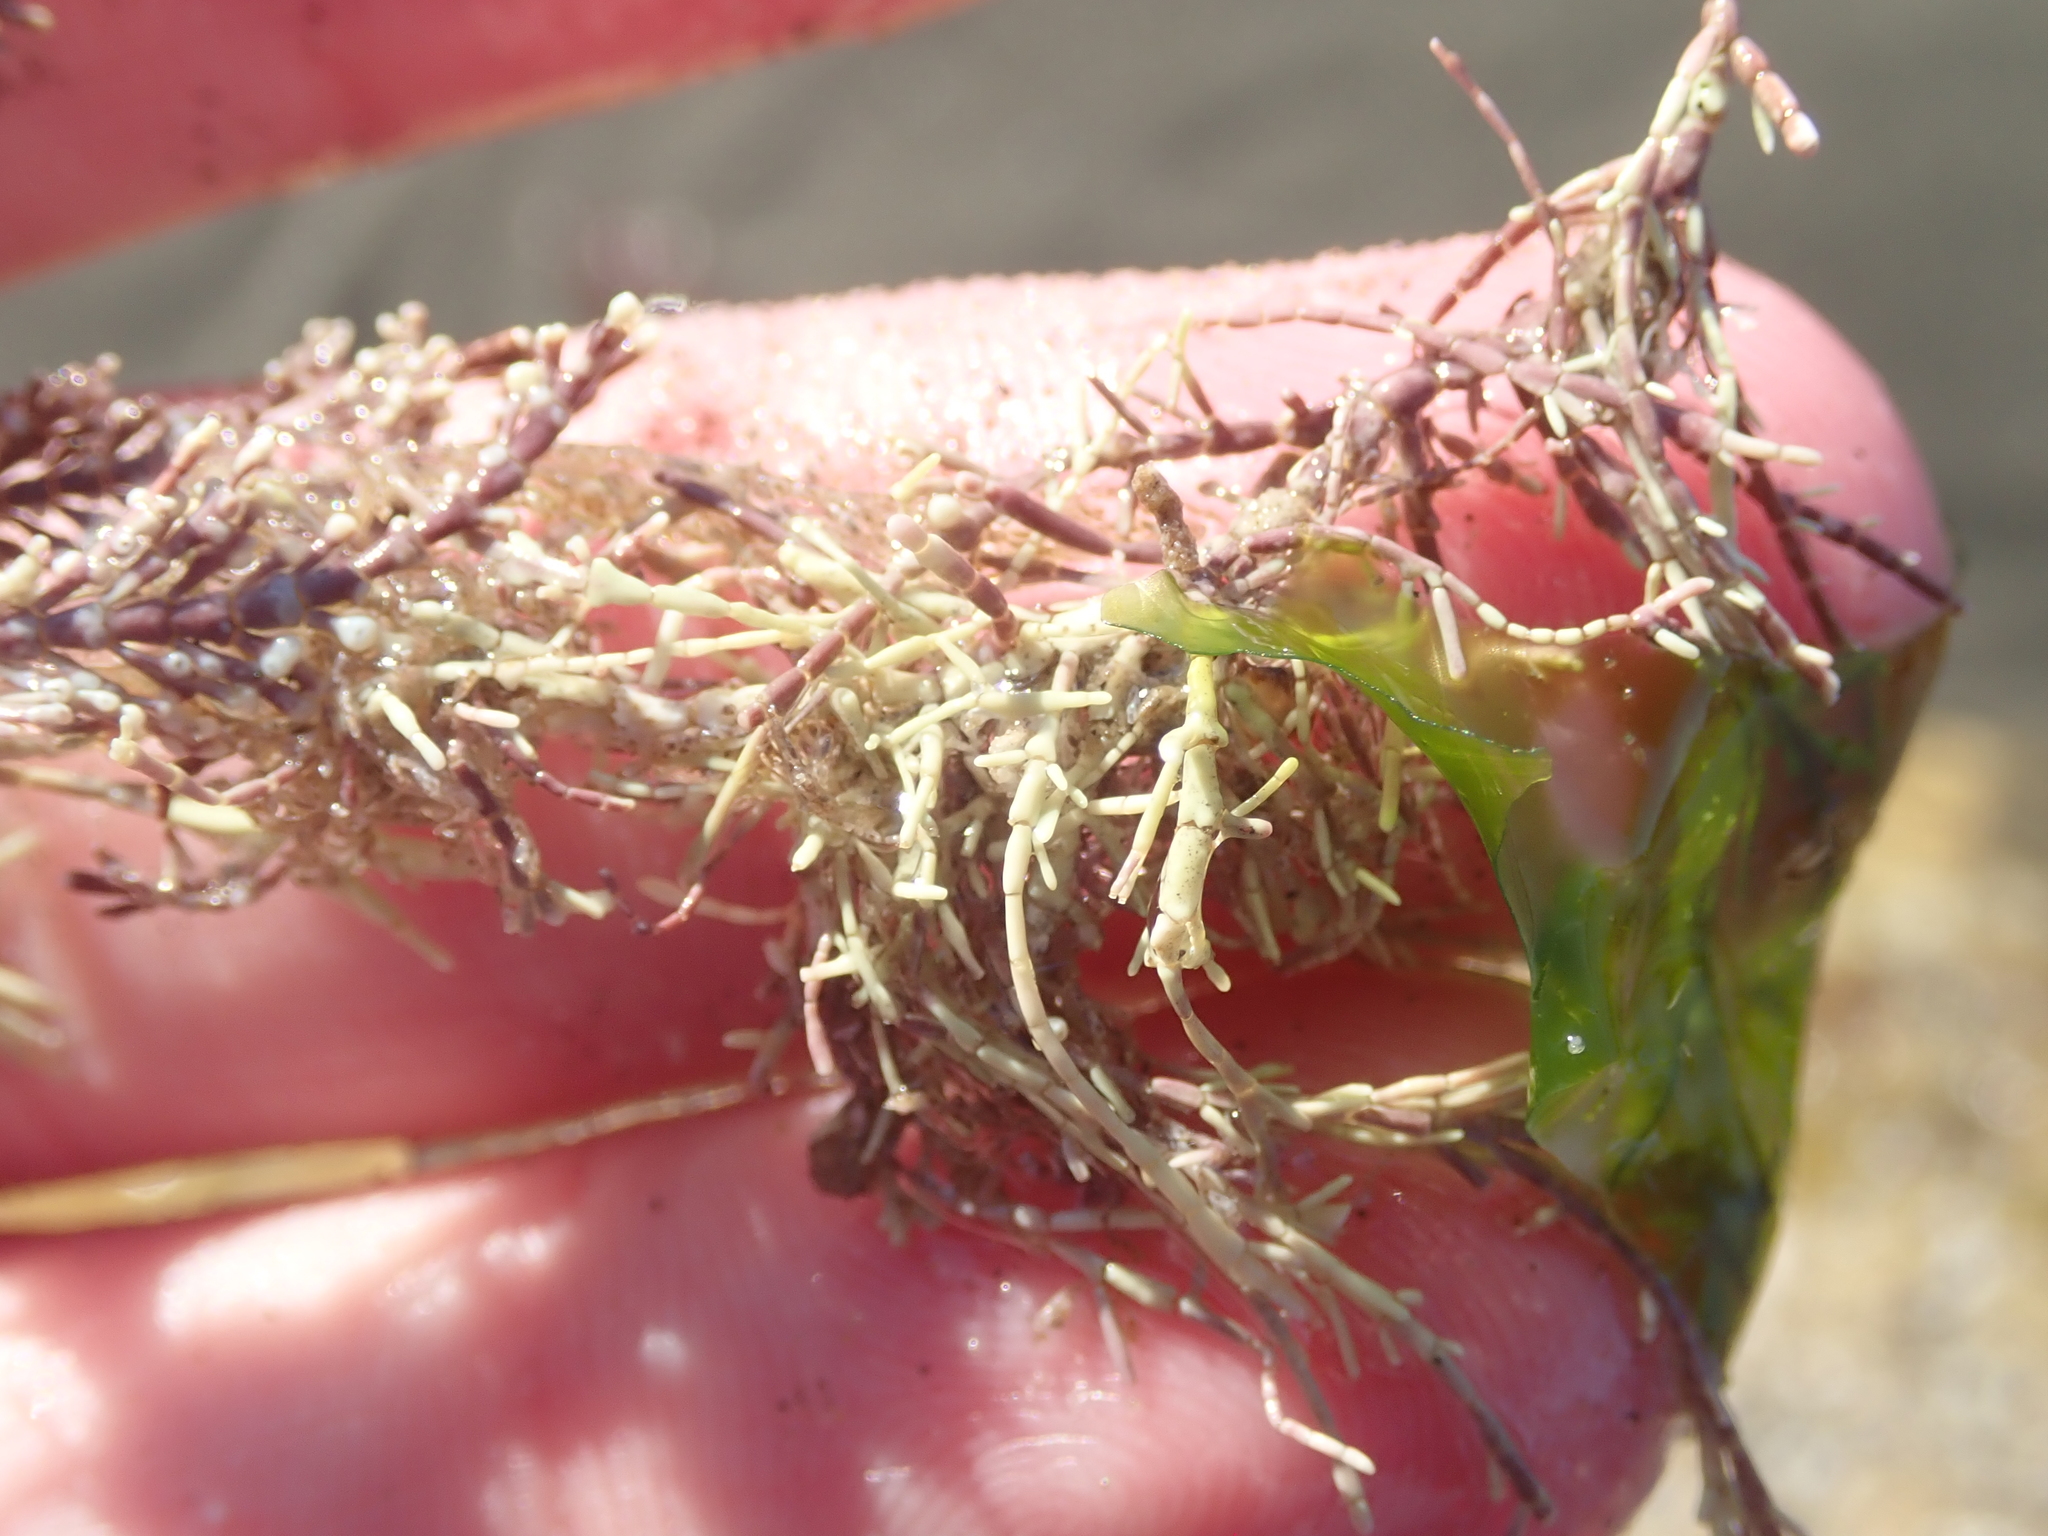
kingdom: Plantae
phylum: Rhodophyta
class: Florideophyceae
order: Corallinales
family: Corallinaceae
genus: Corallina
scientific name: Corallina officinalis
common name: Coral weed
